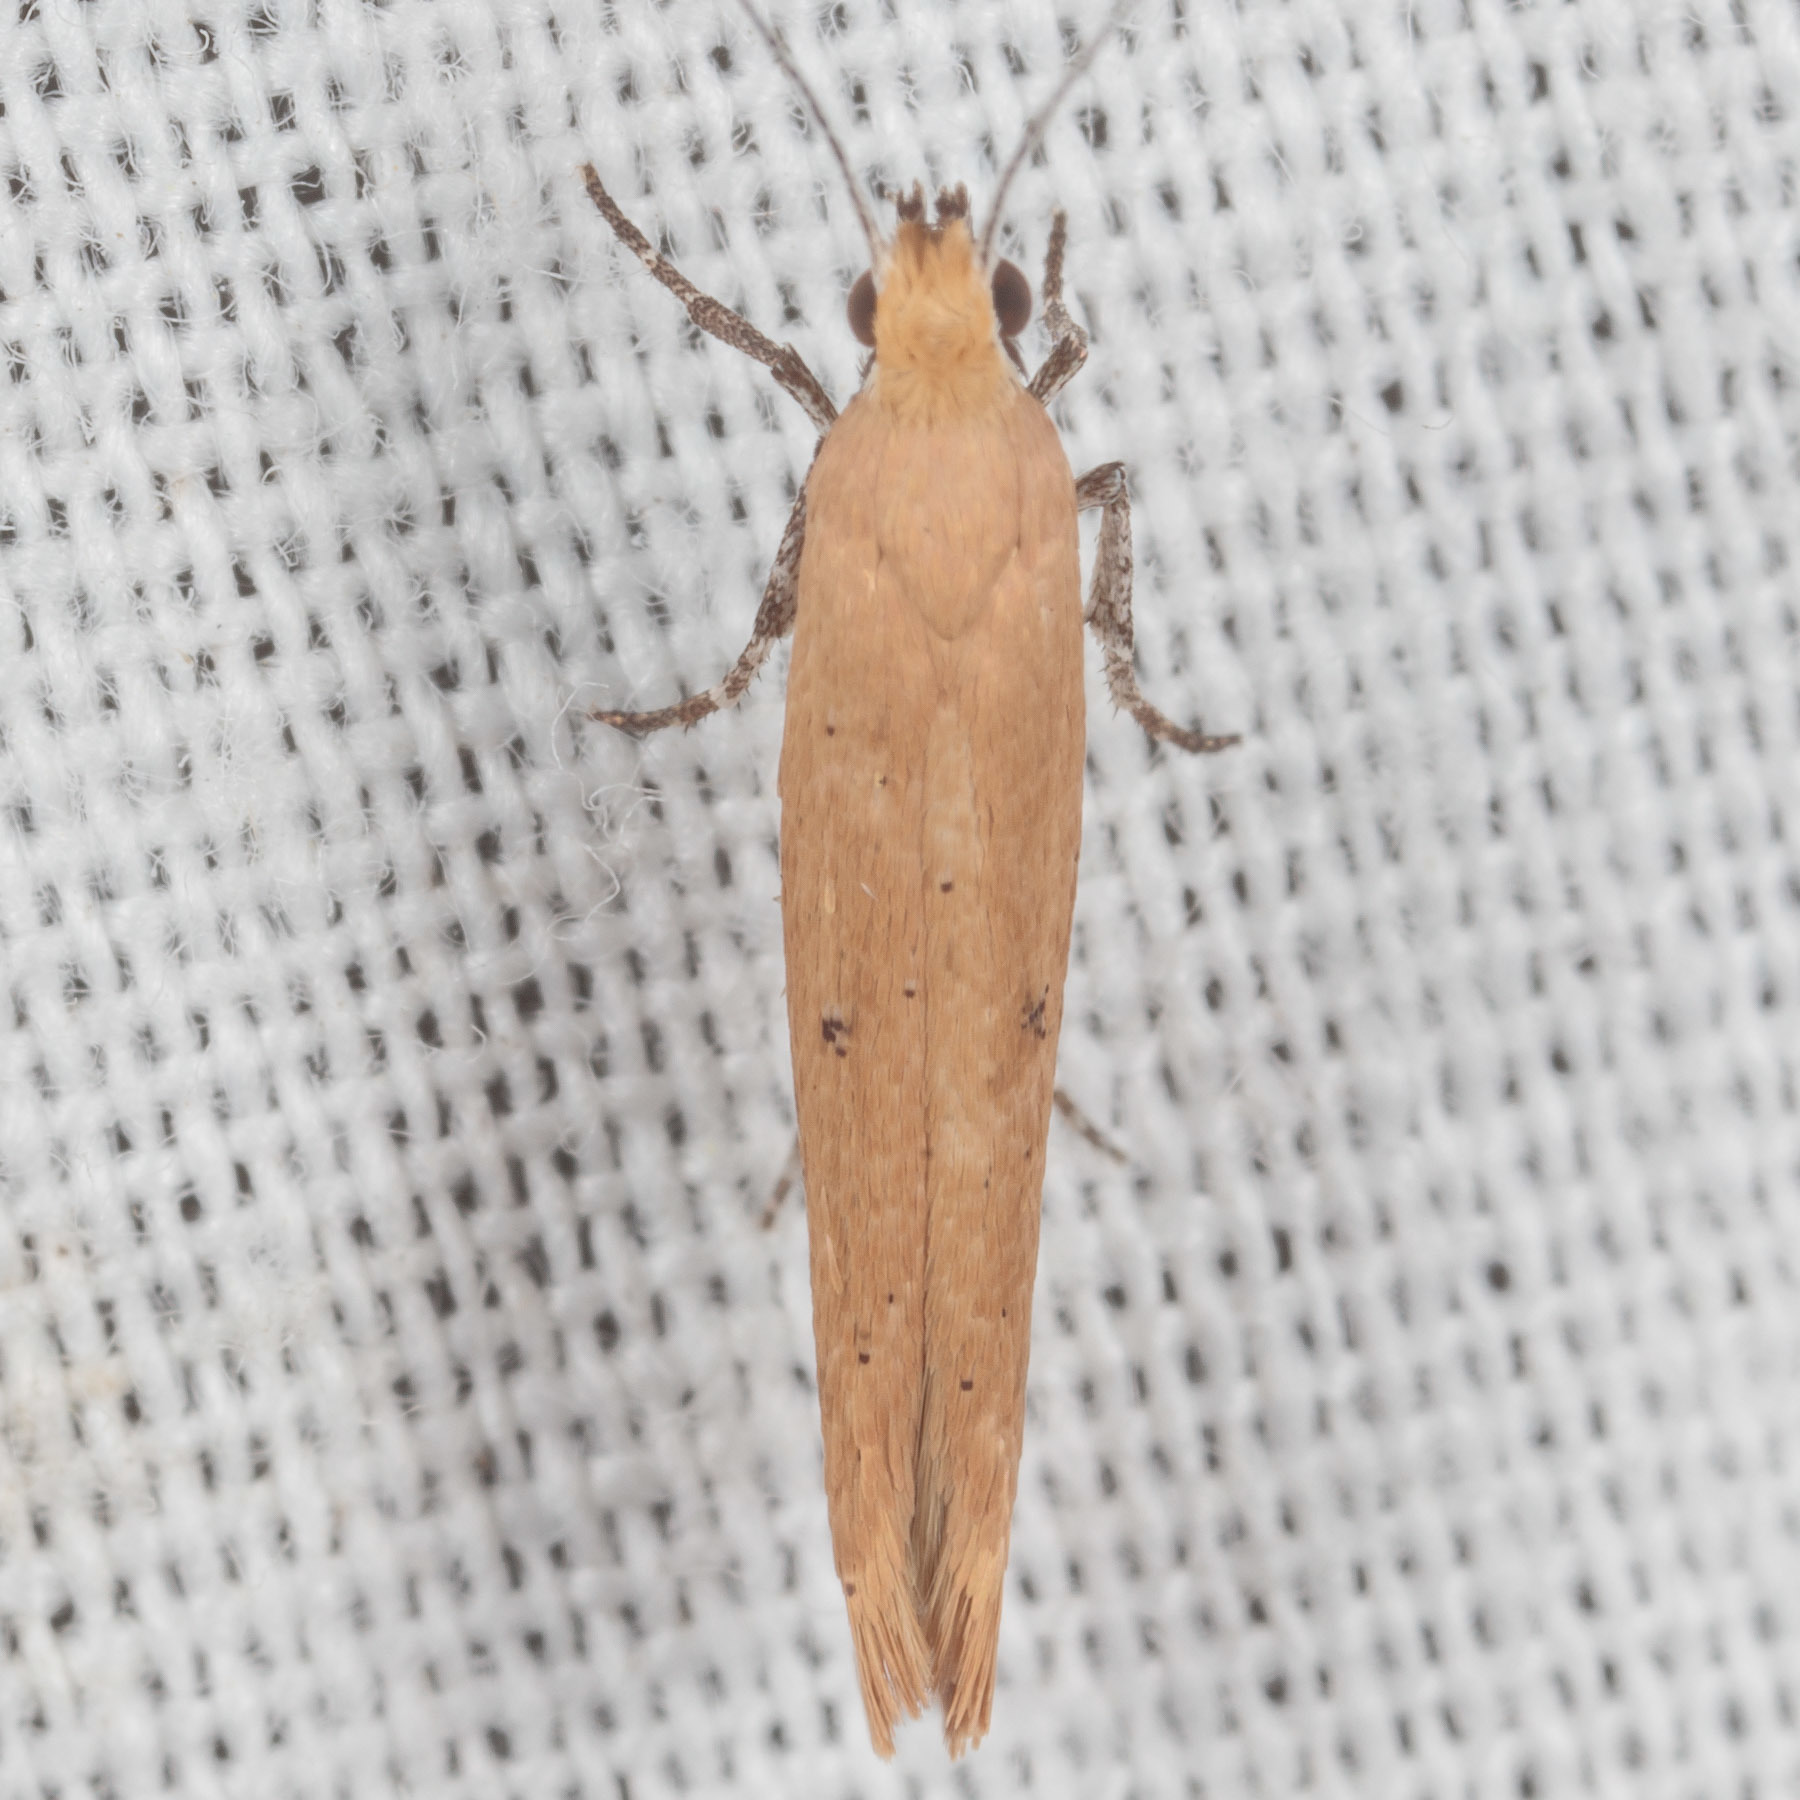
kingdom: Animalia
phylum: Arthropoda
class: Insecta
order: Lepidoptera
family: Ypsolophidae
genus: Ypsolopha
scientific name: Ypsolopha
